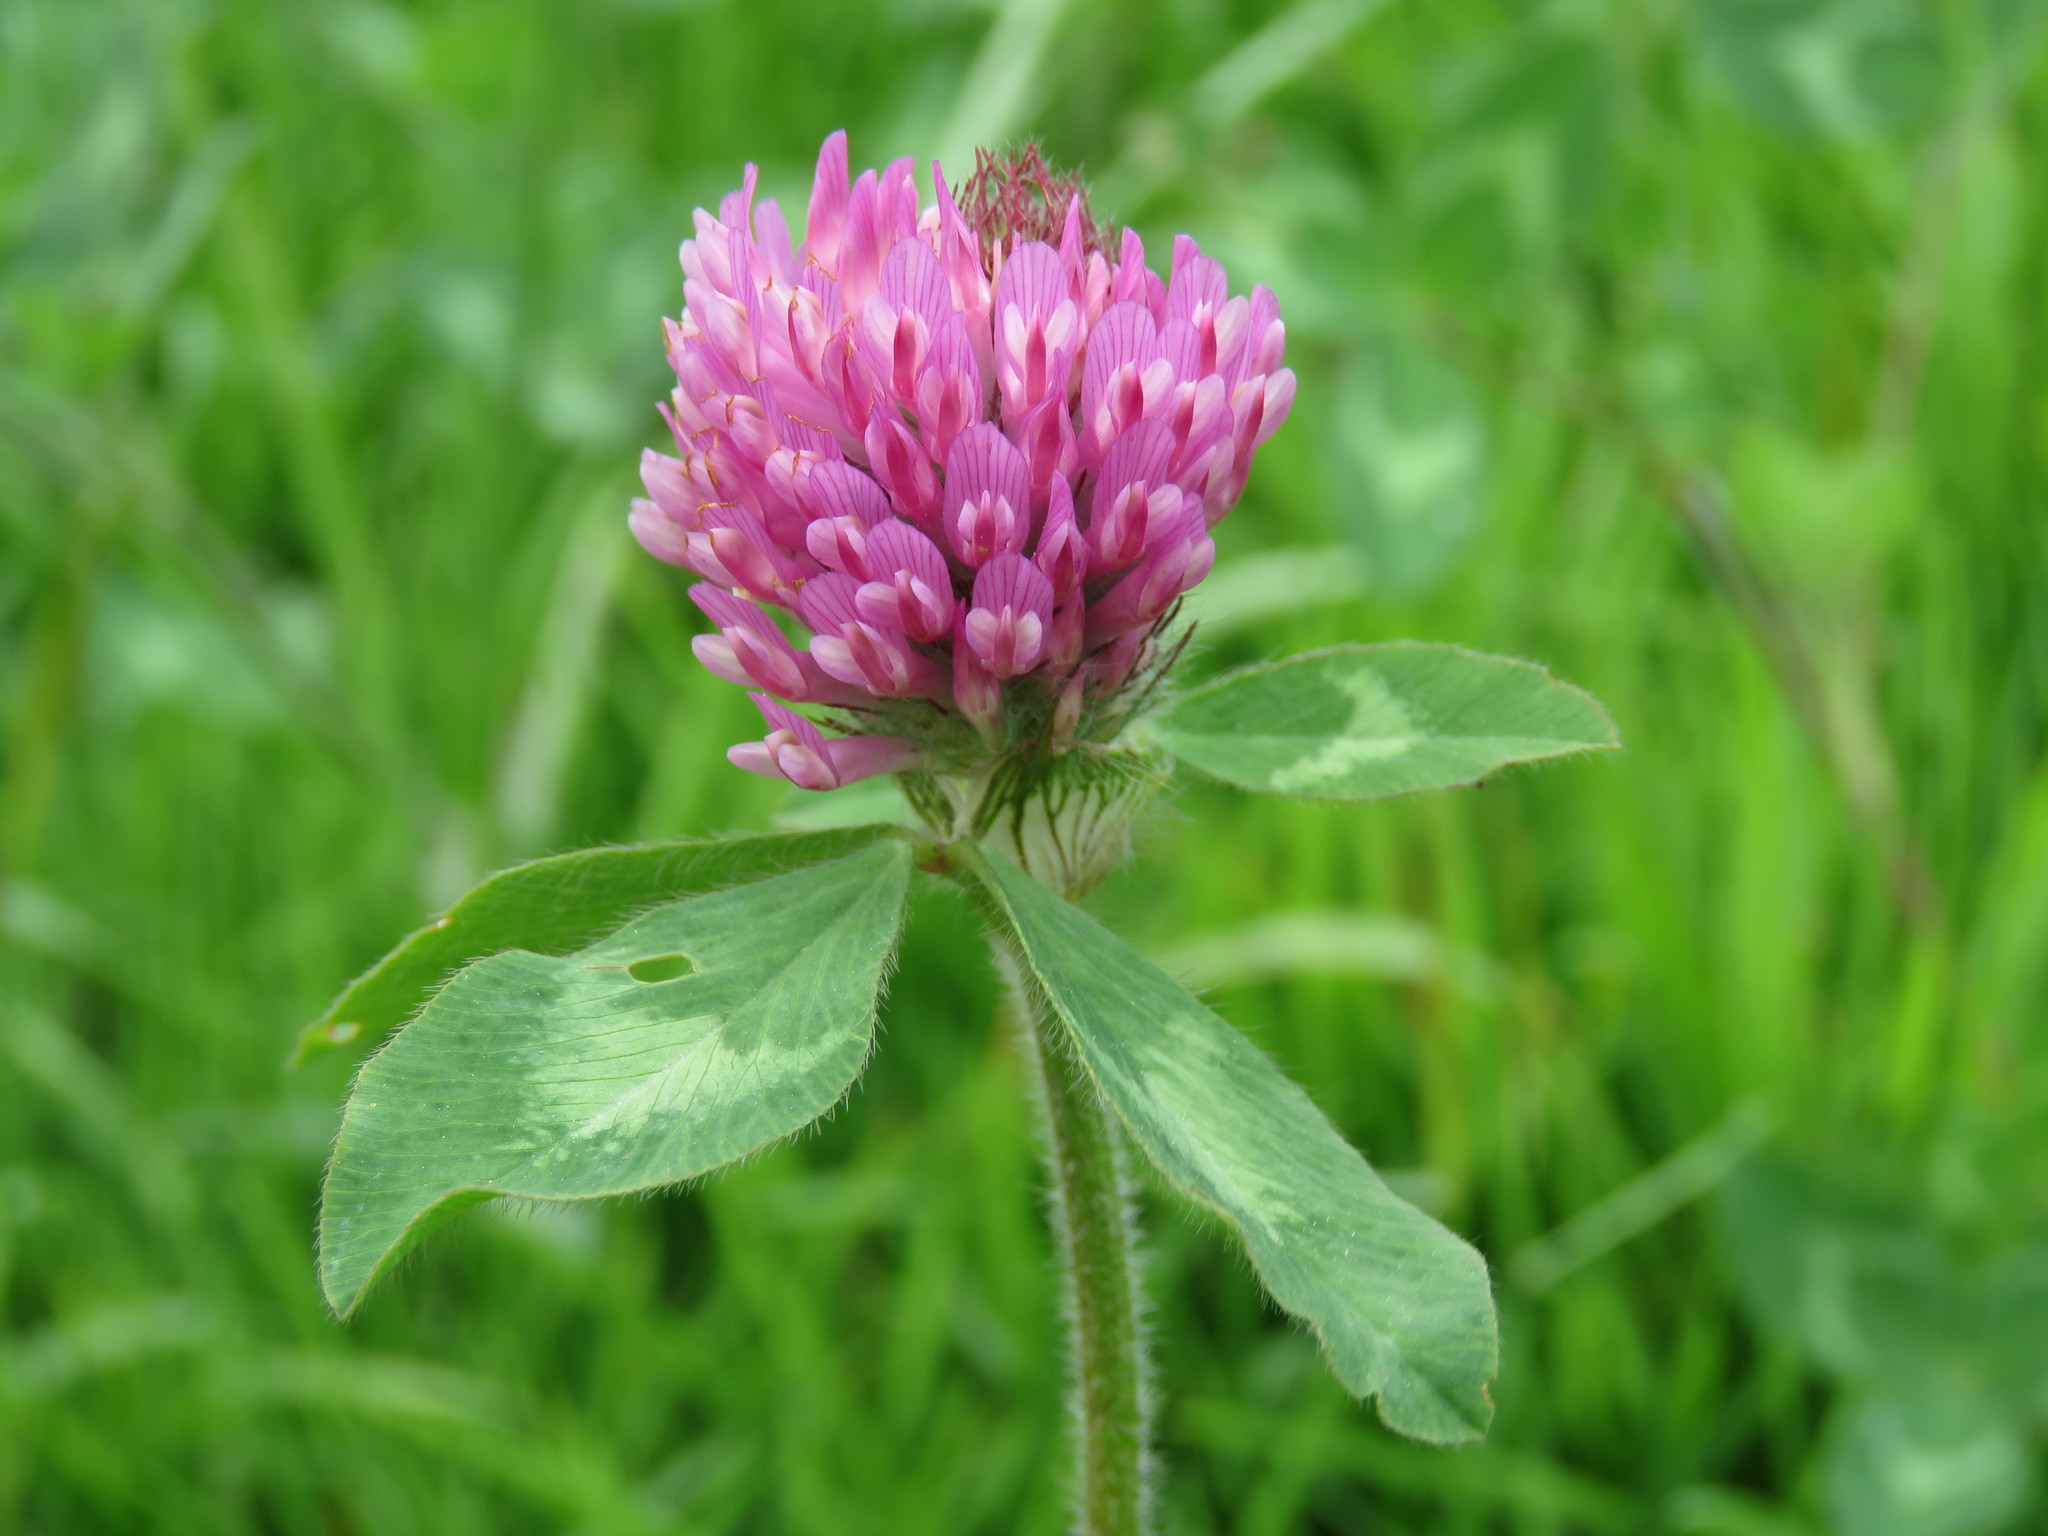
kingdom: Plantae
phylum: Tracheophyta
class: Magnoliopsida
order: Fabales
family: Fabaceae
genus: Trifolium
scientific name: Trifolium pratense
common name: Red clover
